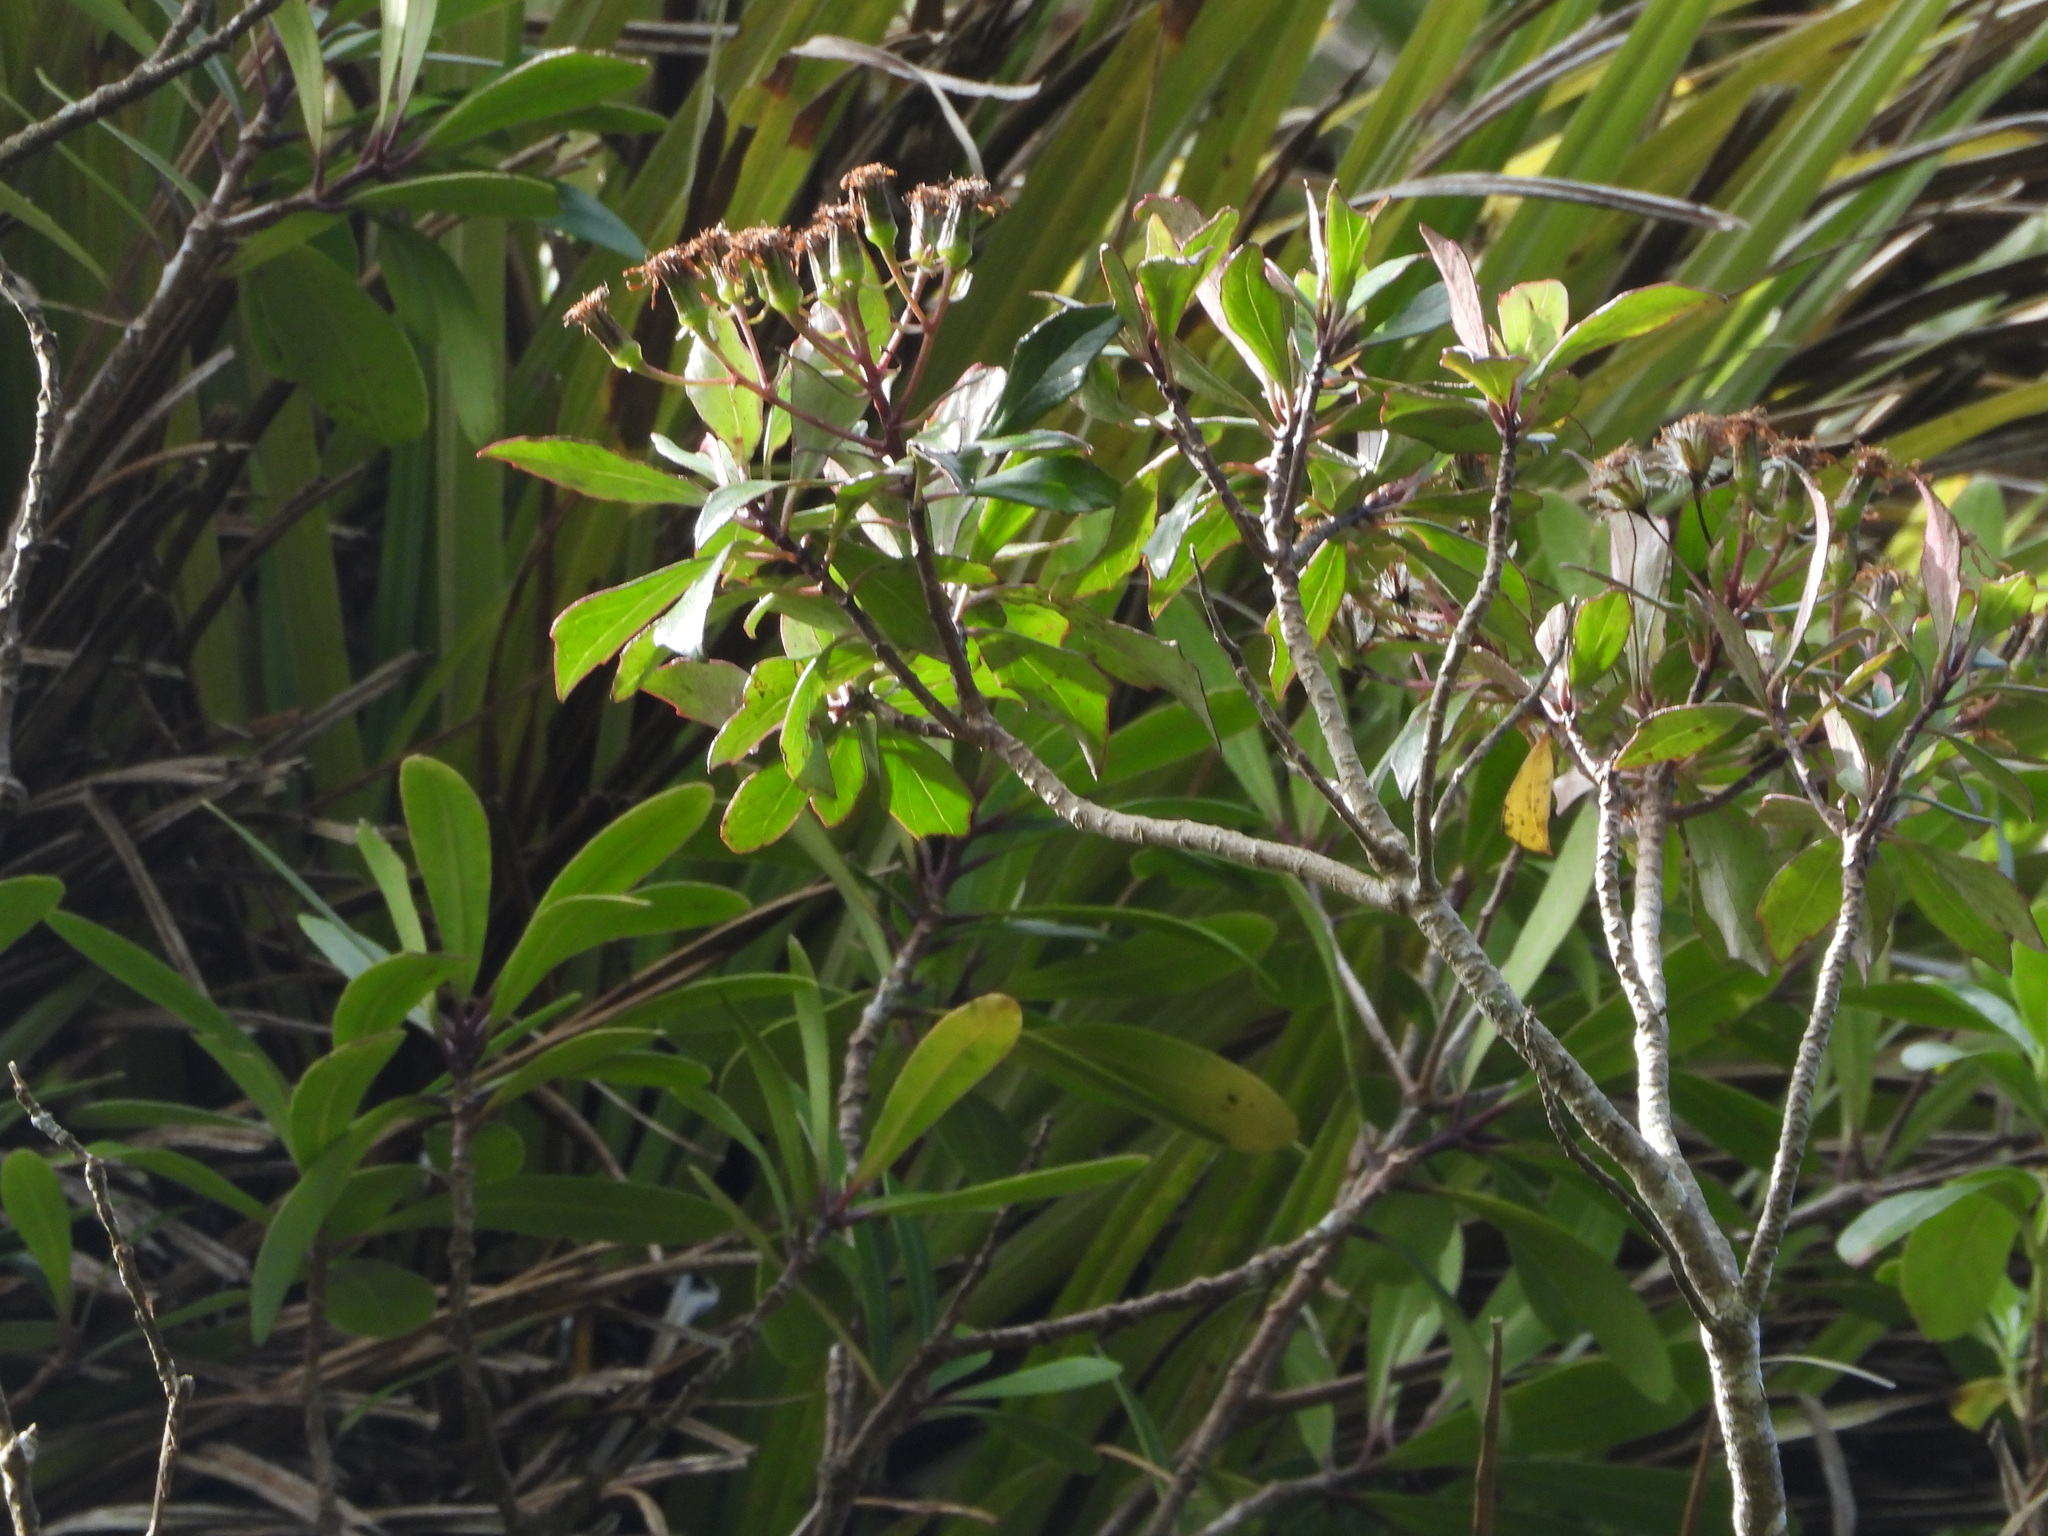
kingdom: Plantae
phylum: Tracheophyta
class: Magnoliopsida
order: Asterales
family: Asteraceae
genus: Brachyglottis
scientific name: Brachyglottis kirkii
